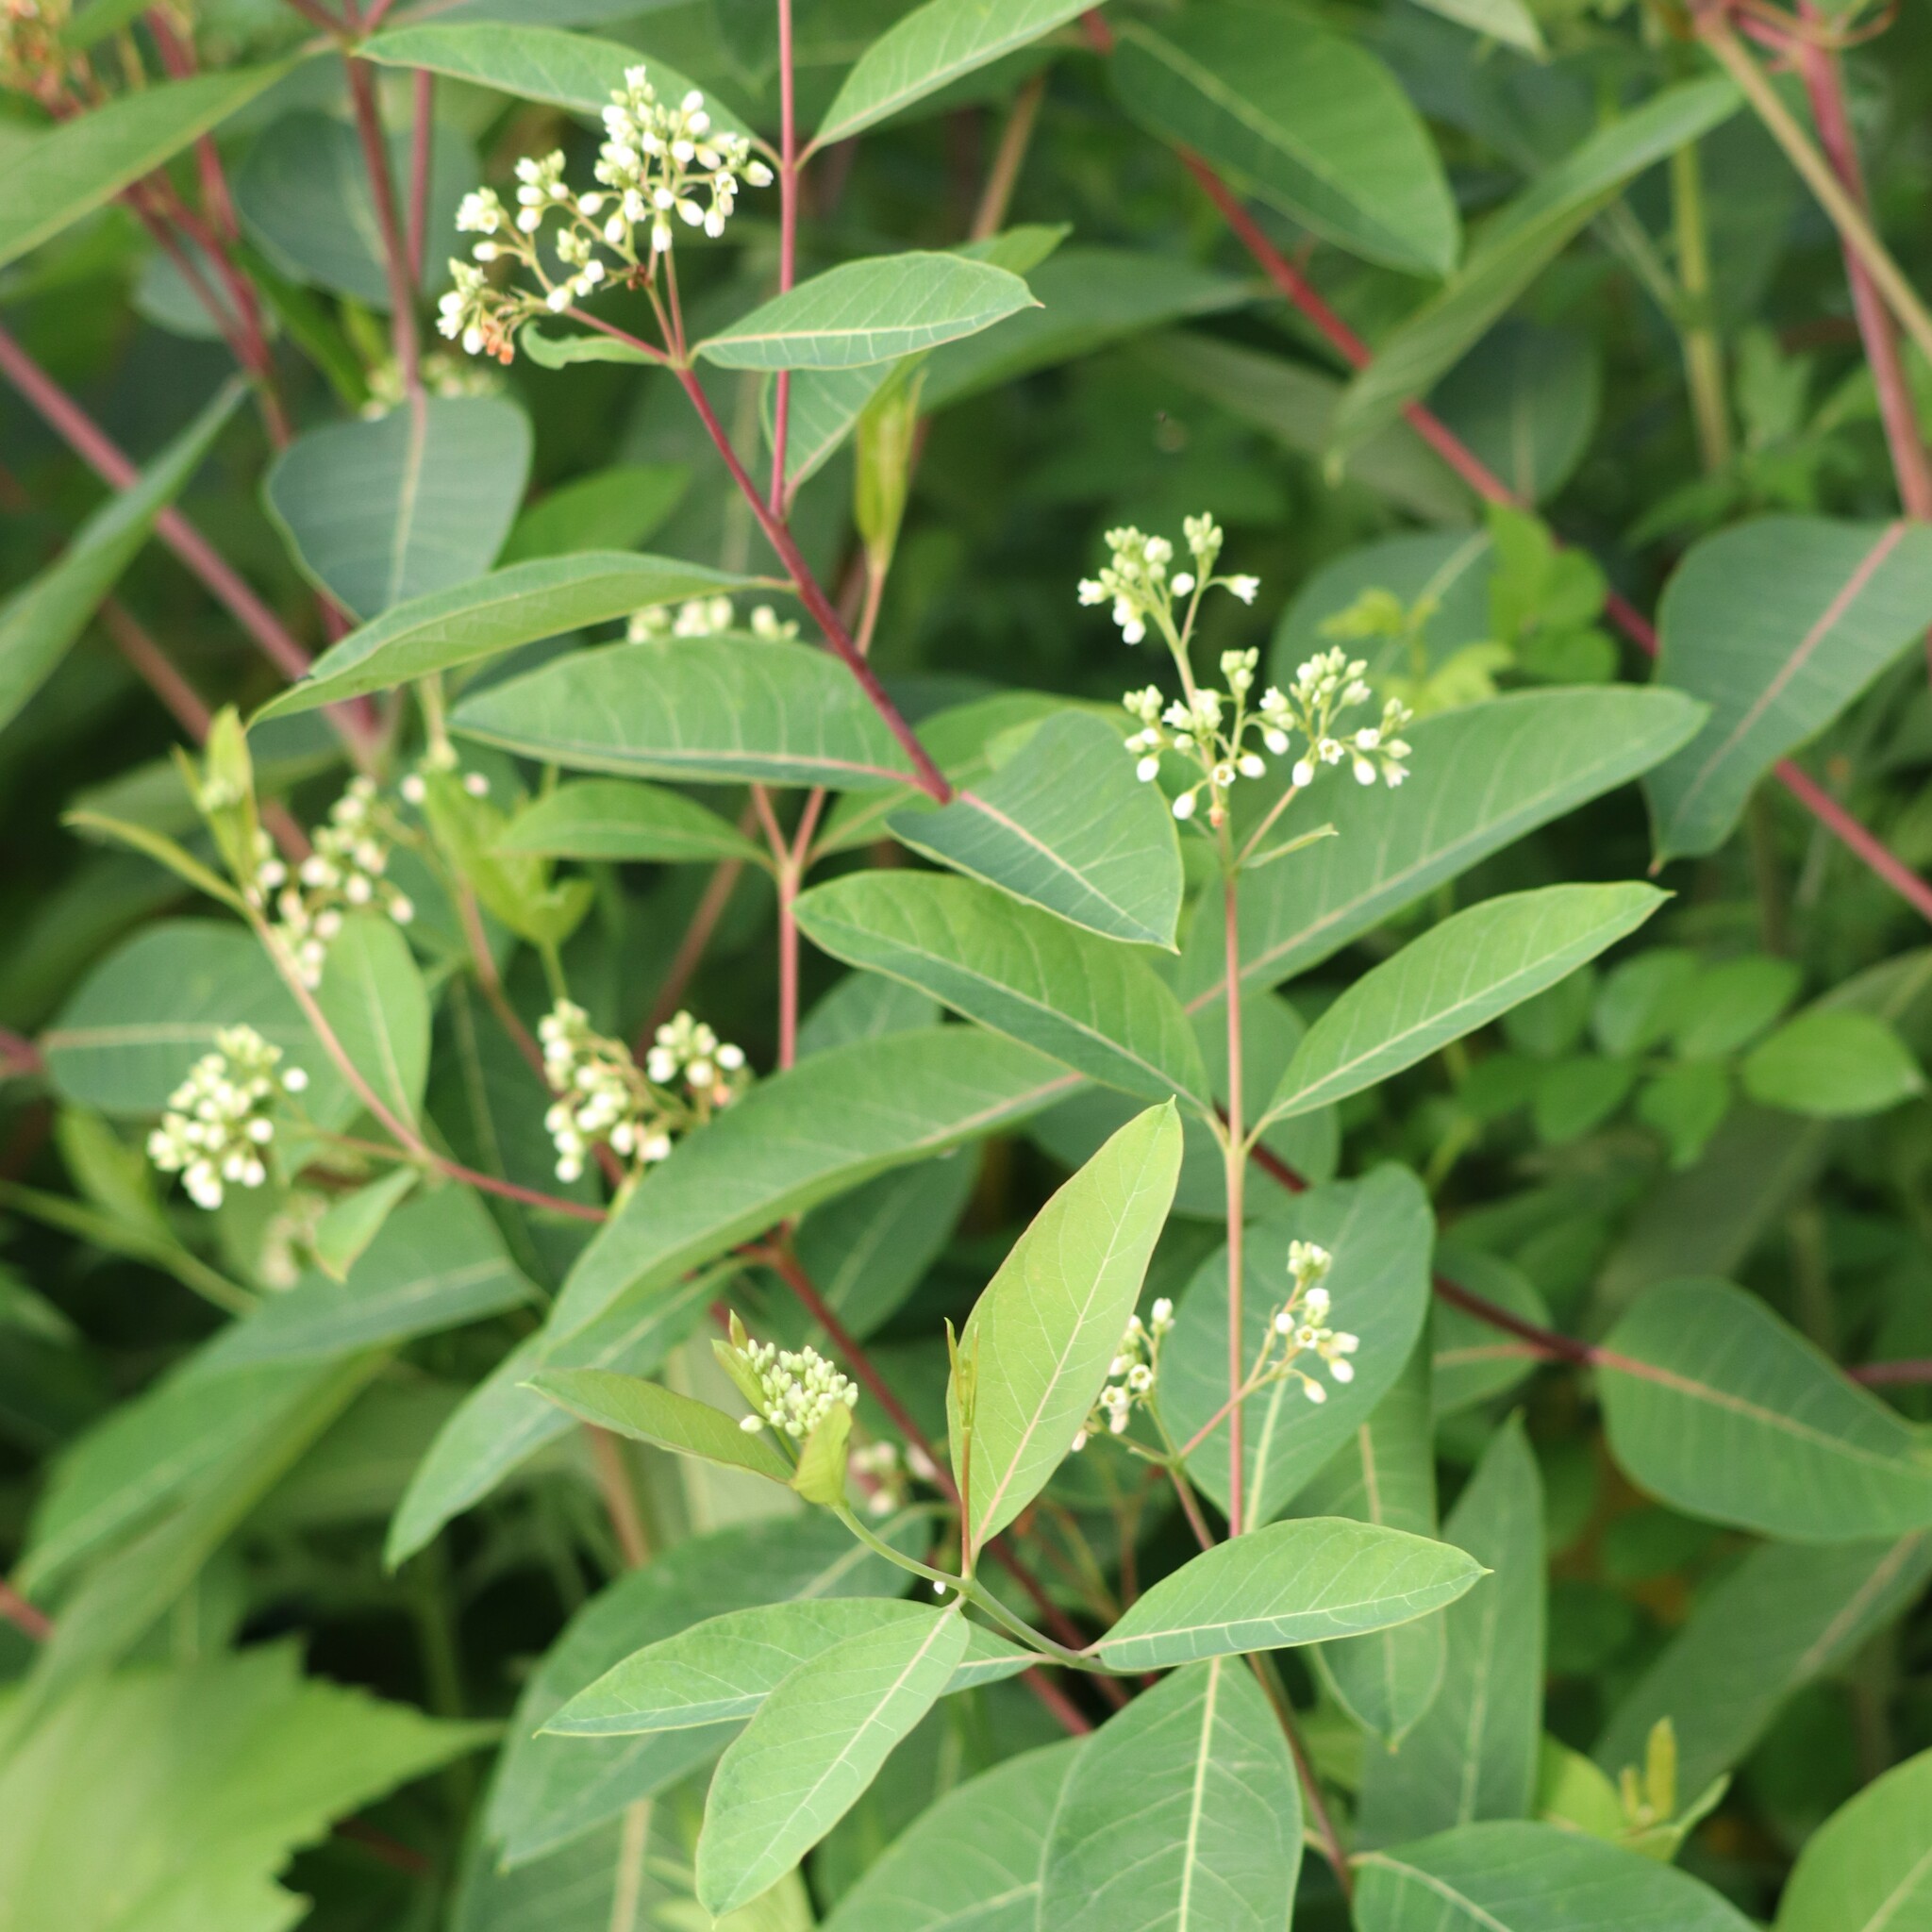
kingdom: Plantae
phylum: Tracheophyta
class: Magnoliopsida
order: Gentianales
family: Apocynaceae
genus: Apocynum
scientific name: Apocynum cannabinum
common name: Hemp dogbane
